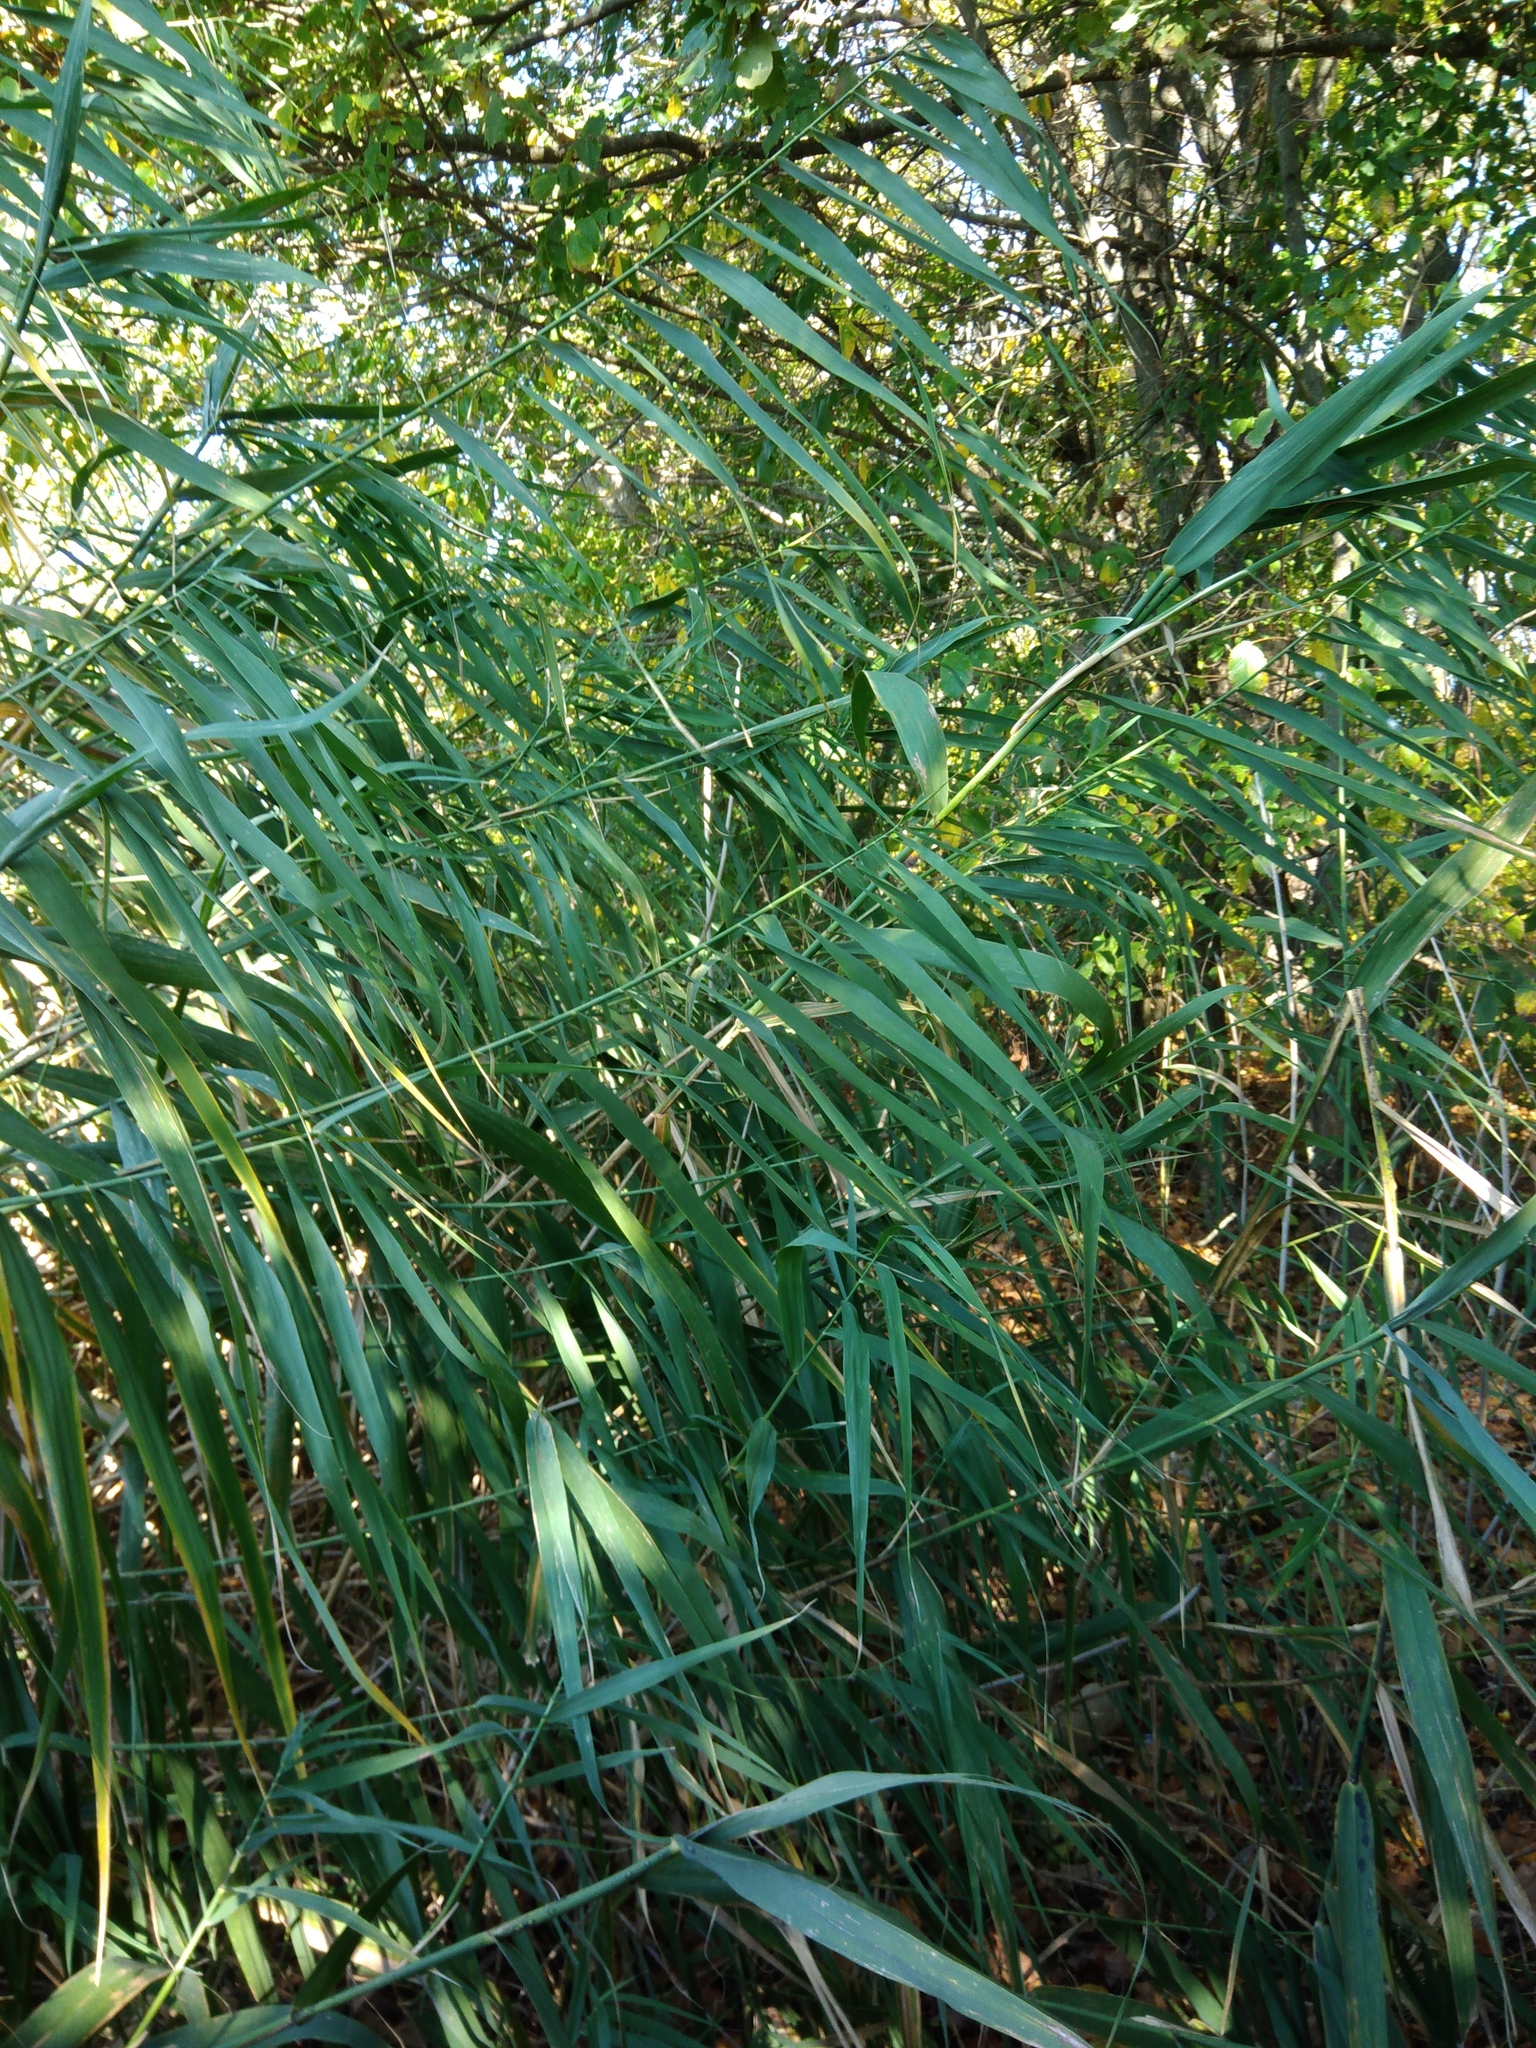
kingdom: Plantae
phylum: Tracheophyta
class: Liliopsida
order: Poales
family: Poaceae
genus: Phragmites
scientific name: Phragmites australis
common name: Common reed
